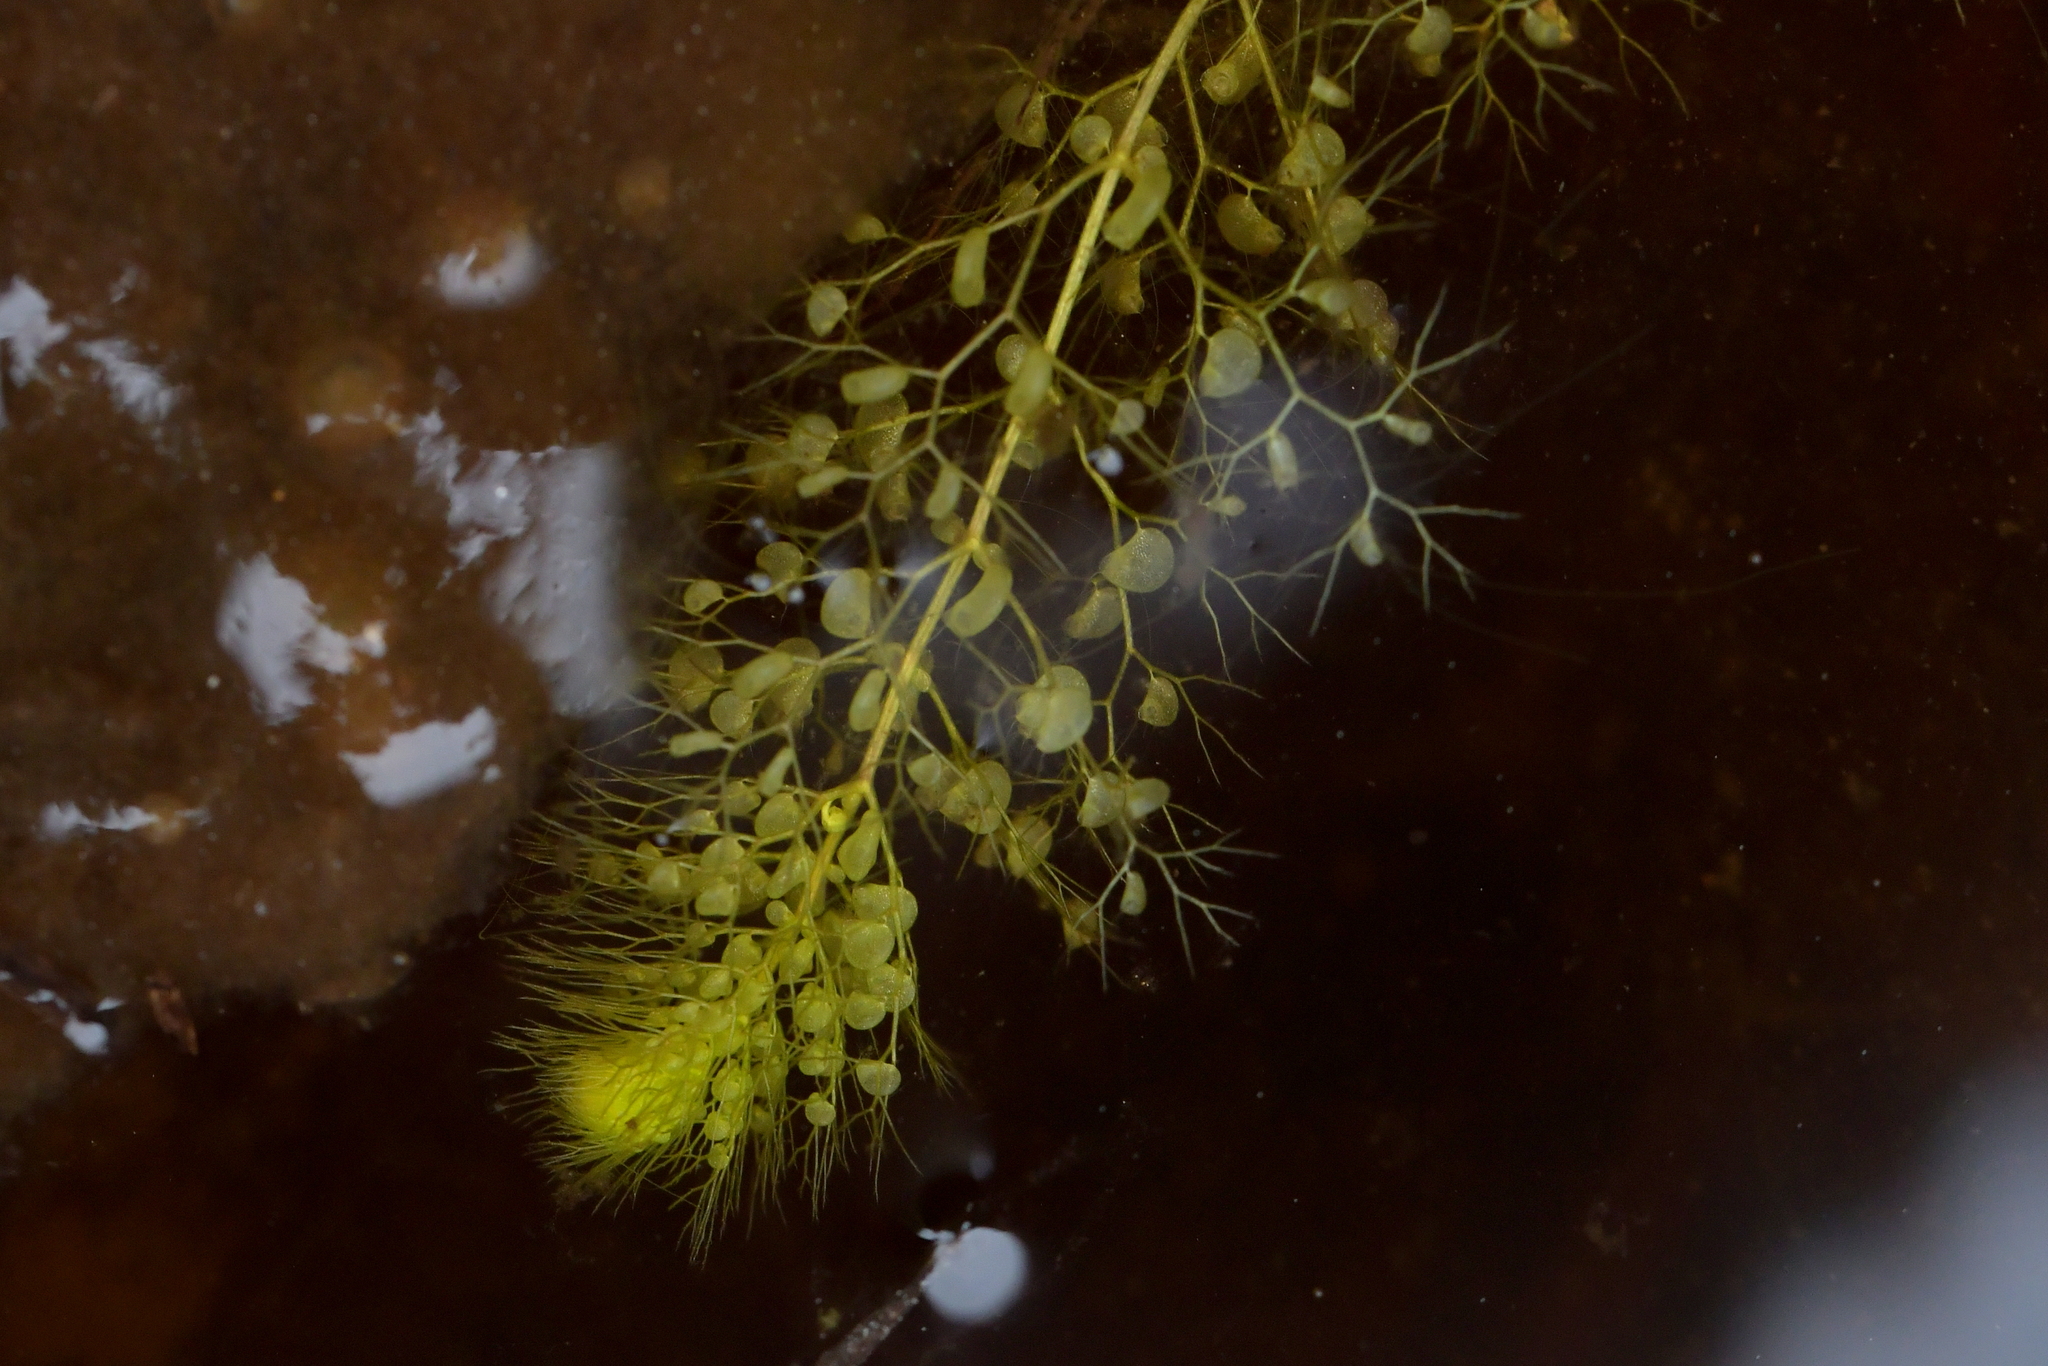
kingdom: Plantae
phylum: Tracheophyta
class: Magnoliopsida
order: Lamiales
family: Lentibulariaceae
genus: Utricularia
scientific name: Utricularia australis
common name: Bladderwort
